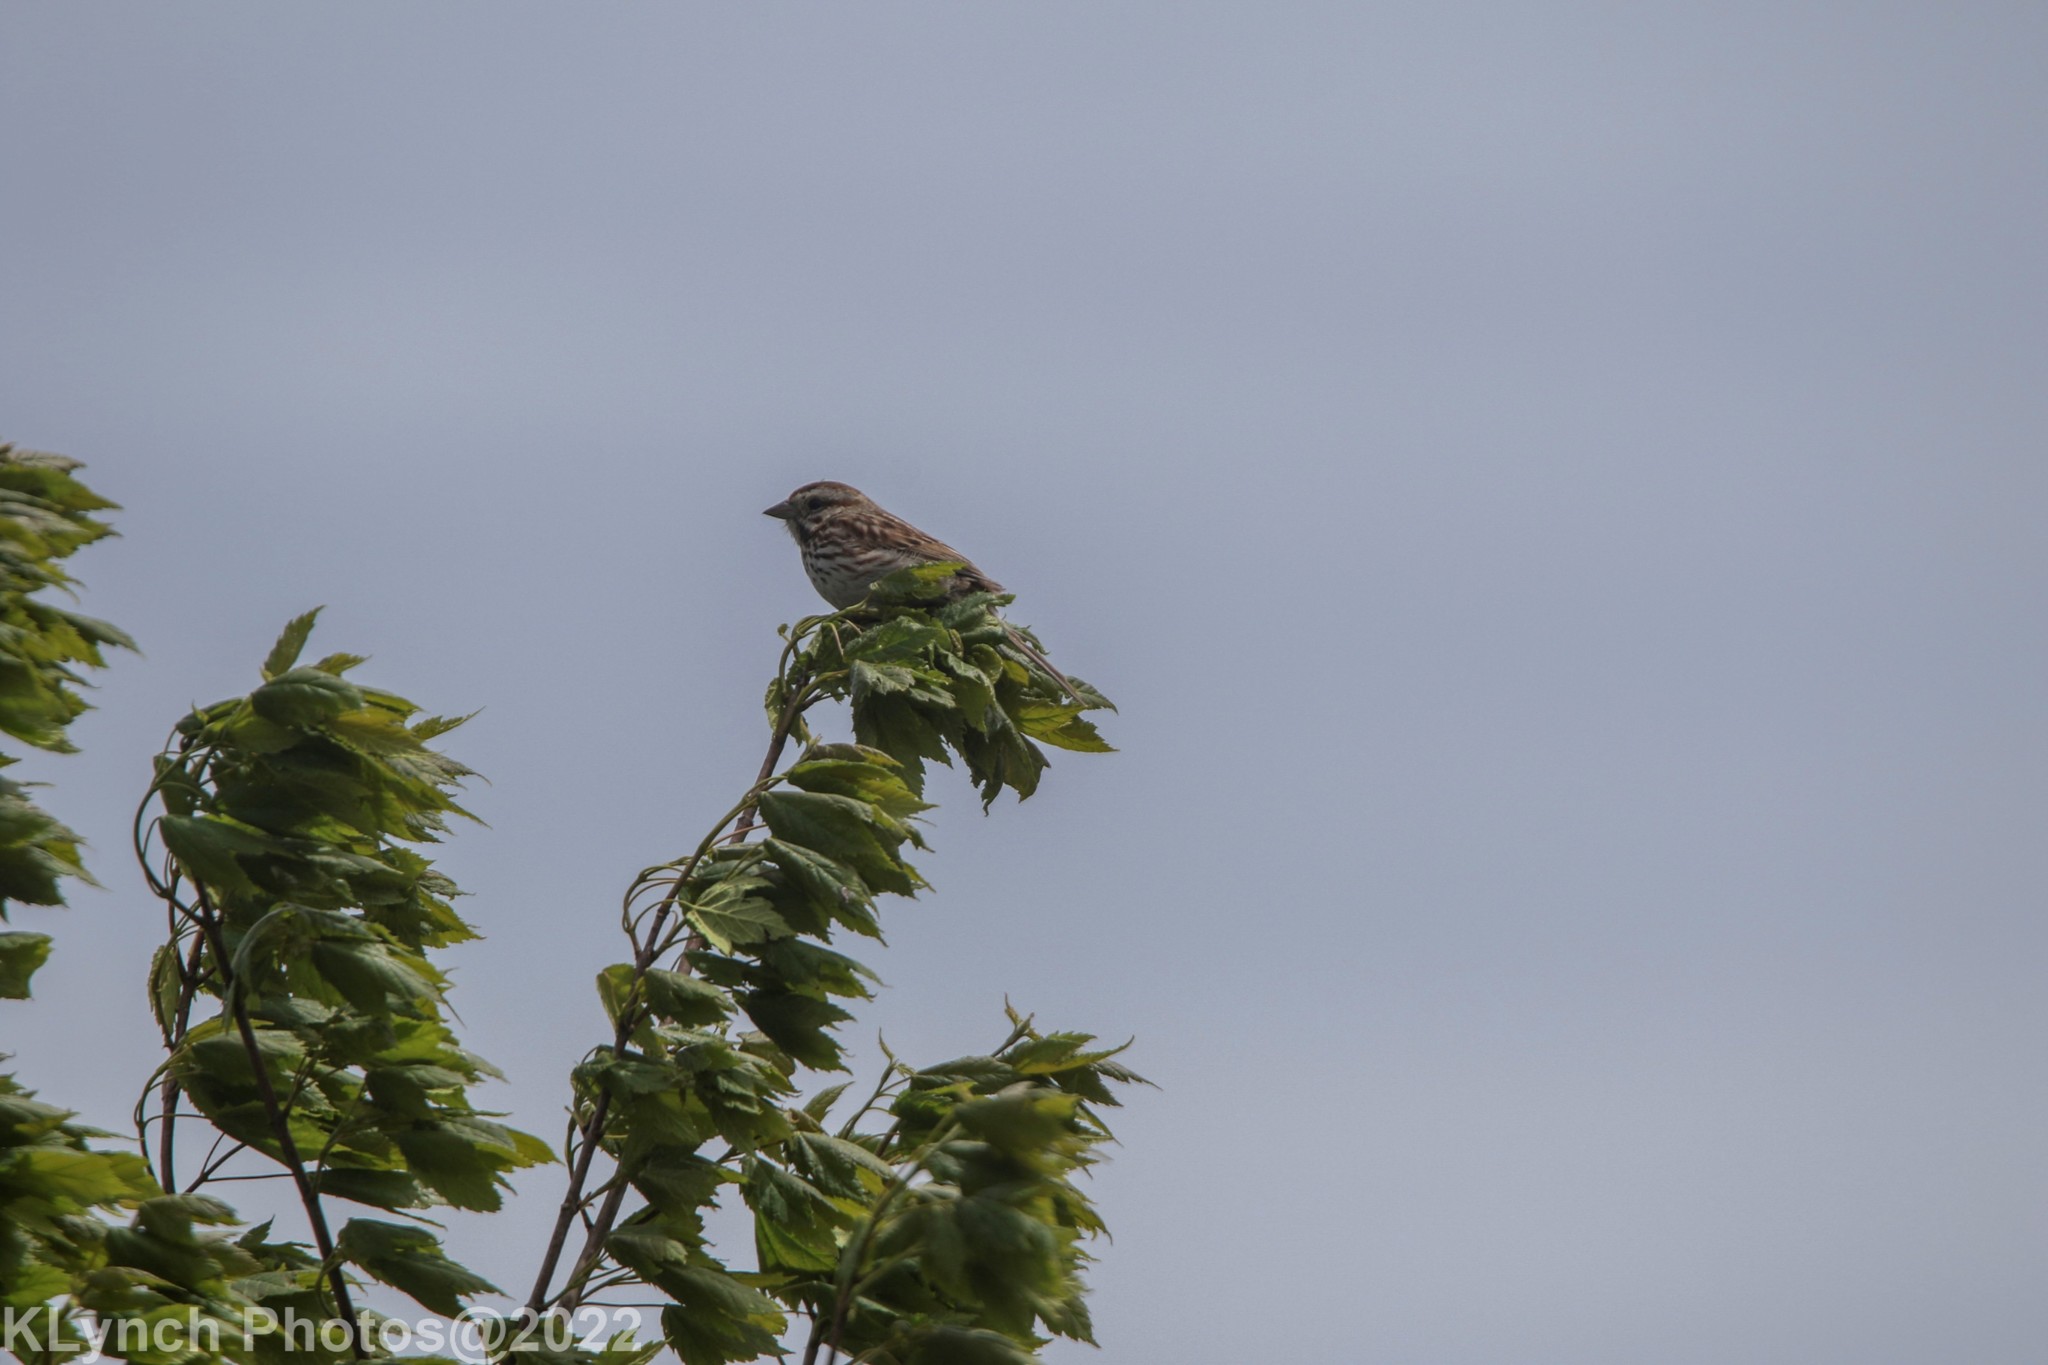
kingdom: Animalia
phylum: Chordata
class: Aves
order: Passeriformes
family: Passerellidae
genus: Melospiza
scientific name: Melospiza melodia
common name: Song sparrow
